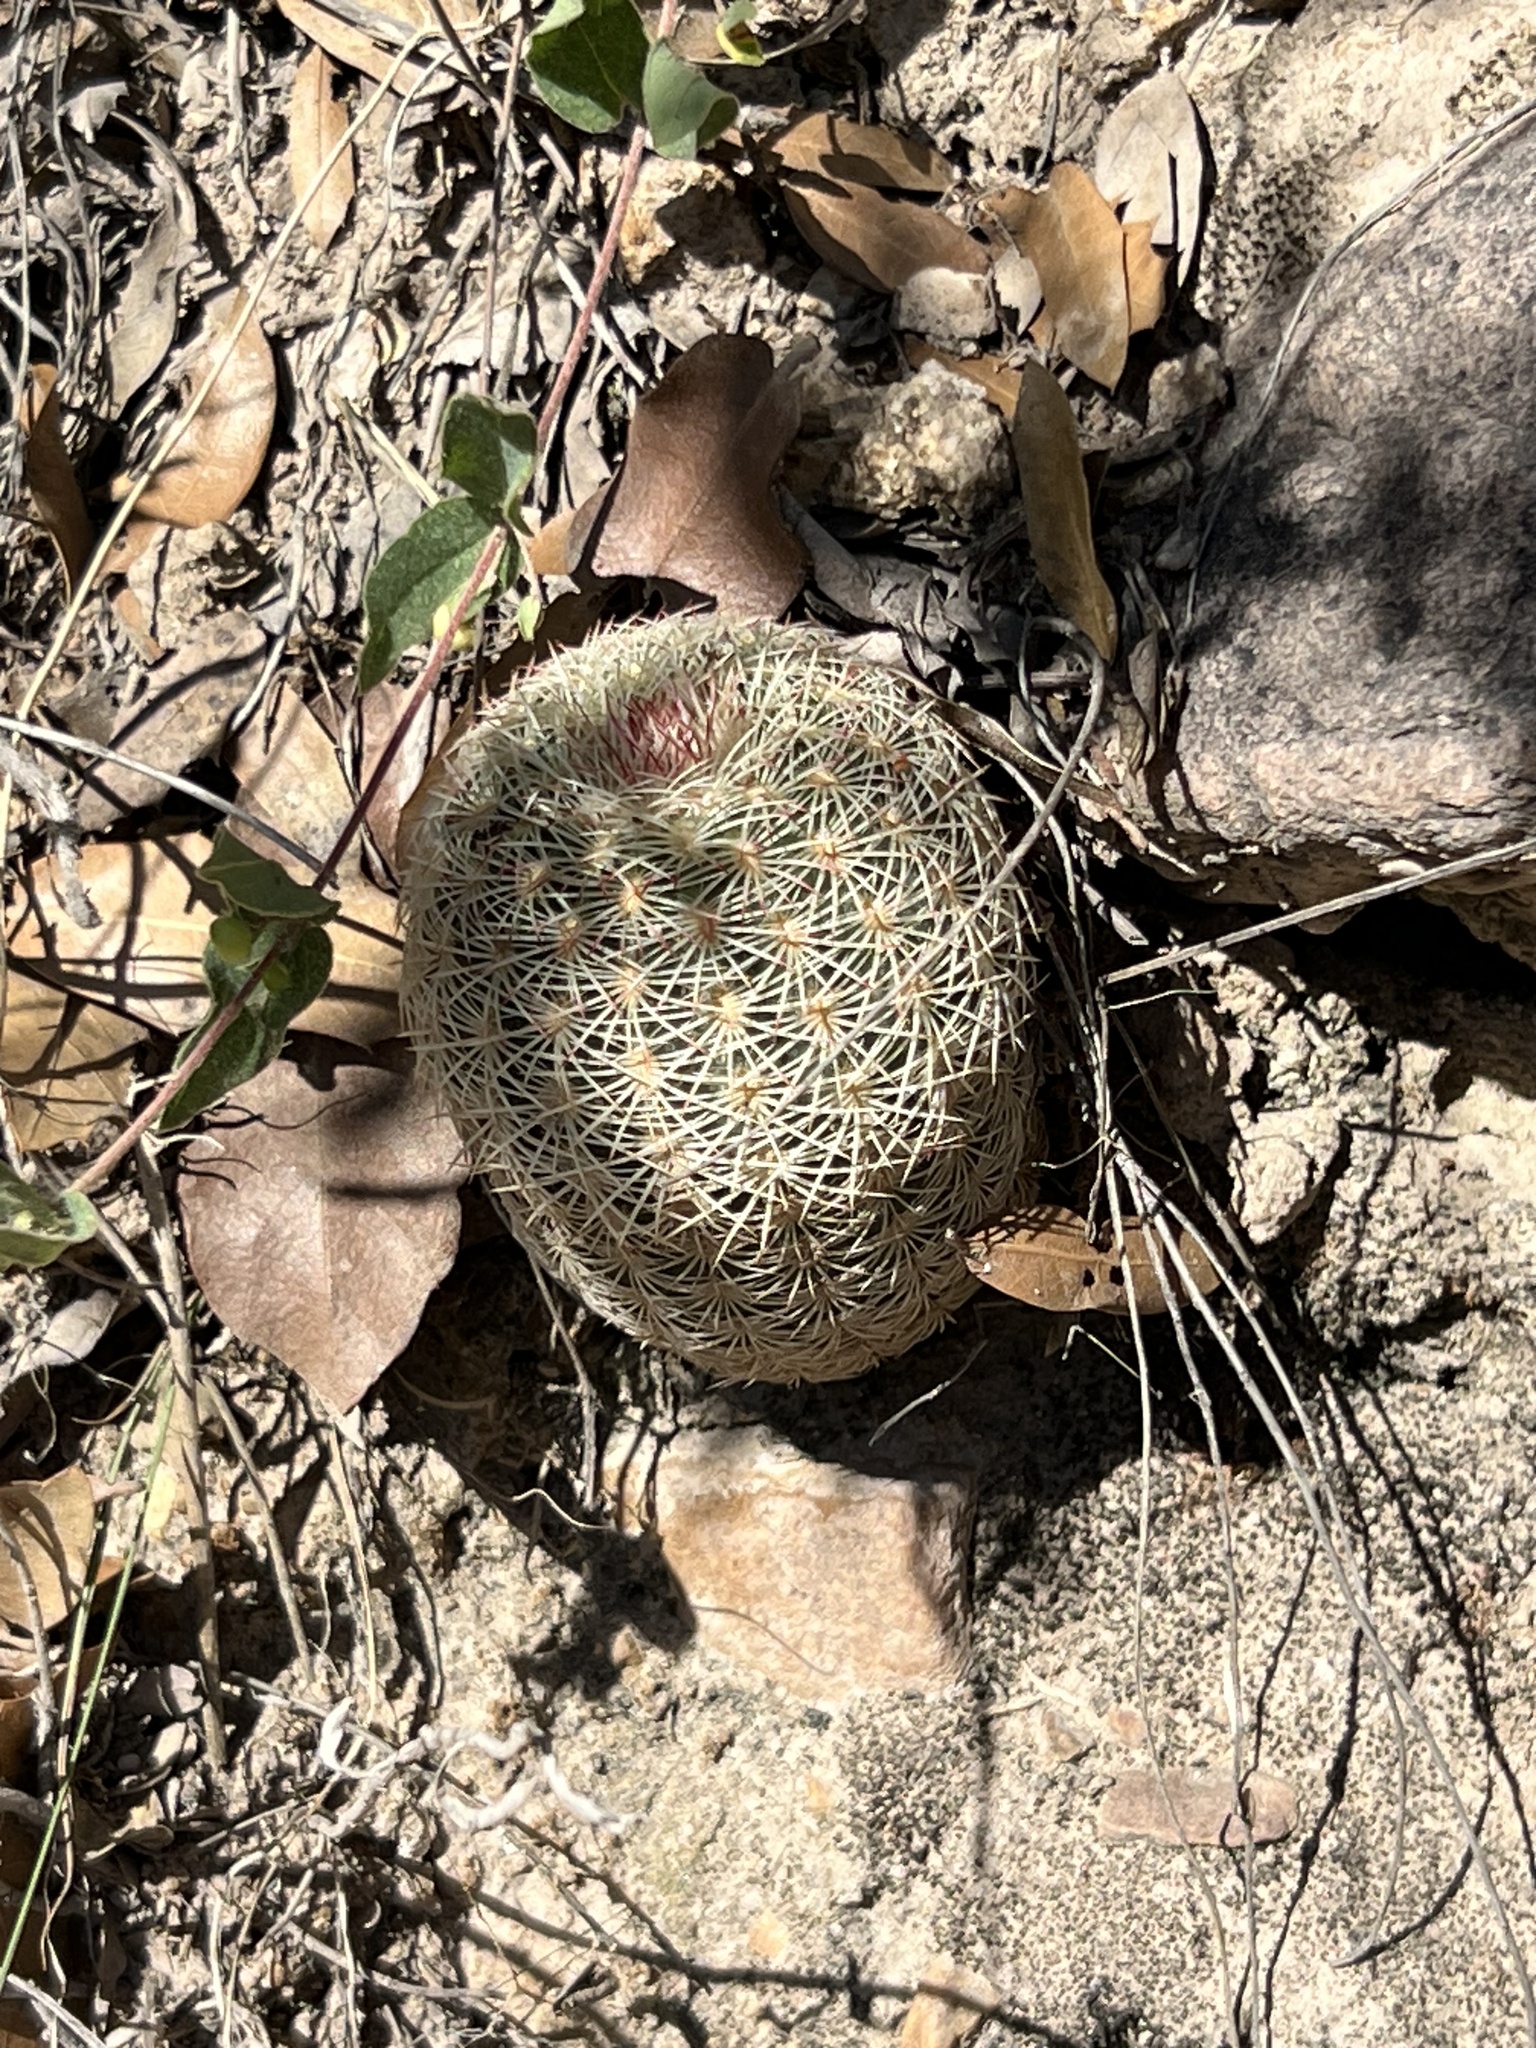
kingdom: Plantae
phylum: Tracheophyta
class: Magnoliopsida
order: Caryophyllales
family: Cactaceae
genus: Echinocereus
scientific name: Echinocereus rigidissimus
